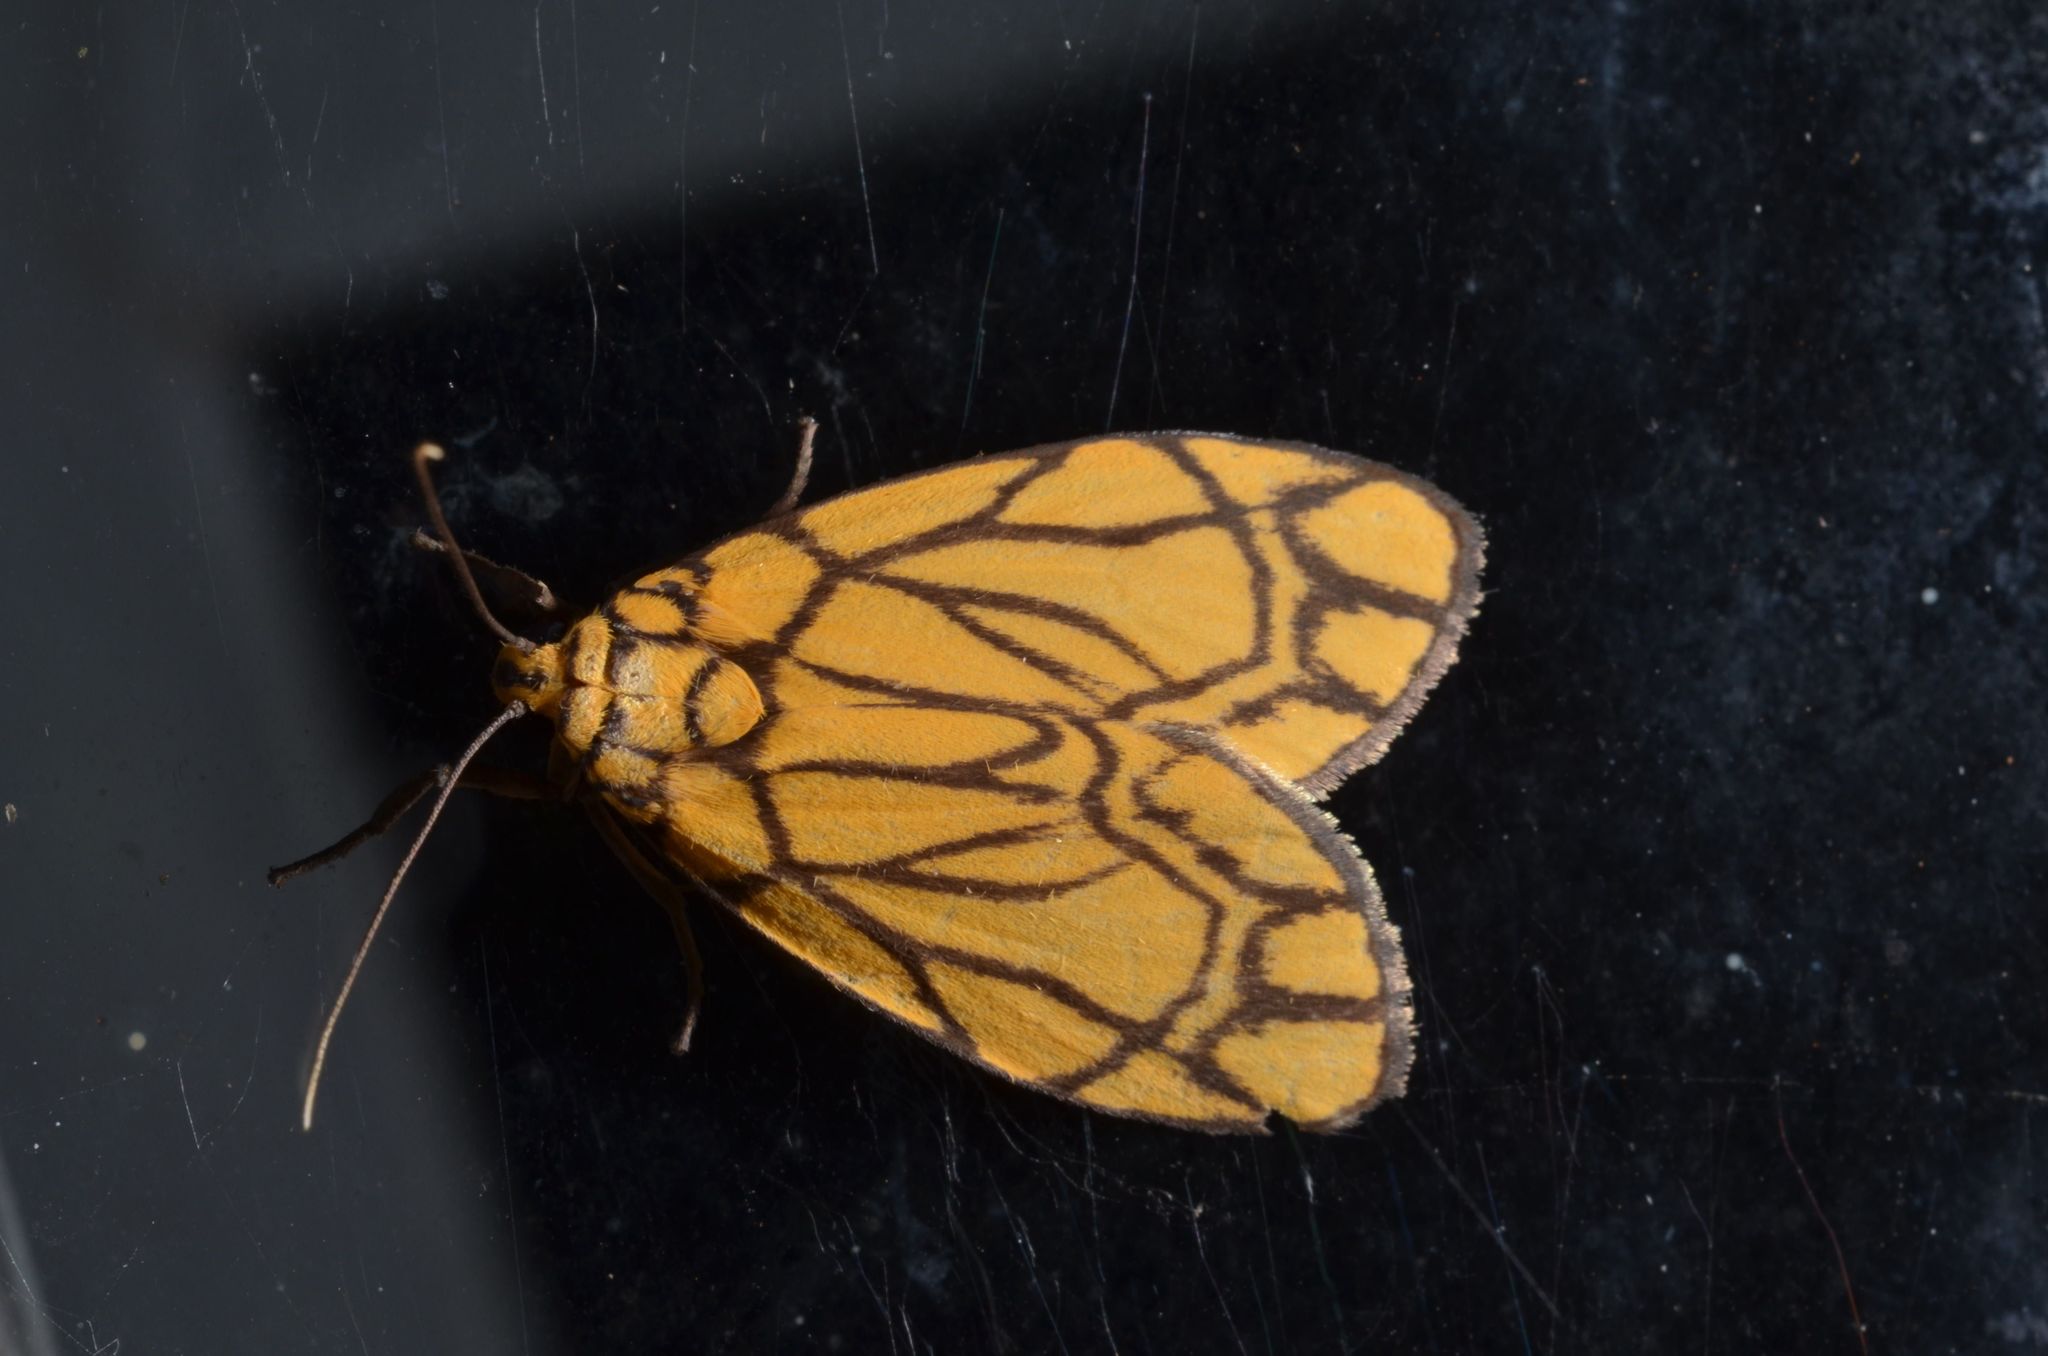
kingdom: Animalia
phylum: Arthropoda
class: Insecta
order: Lepidoptera
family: Erebidae
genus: Cyme
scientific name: Cyme euprepioides
